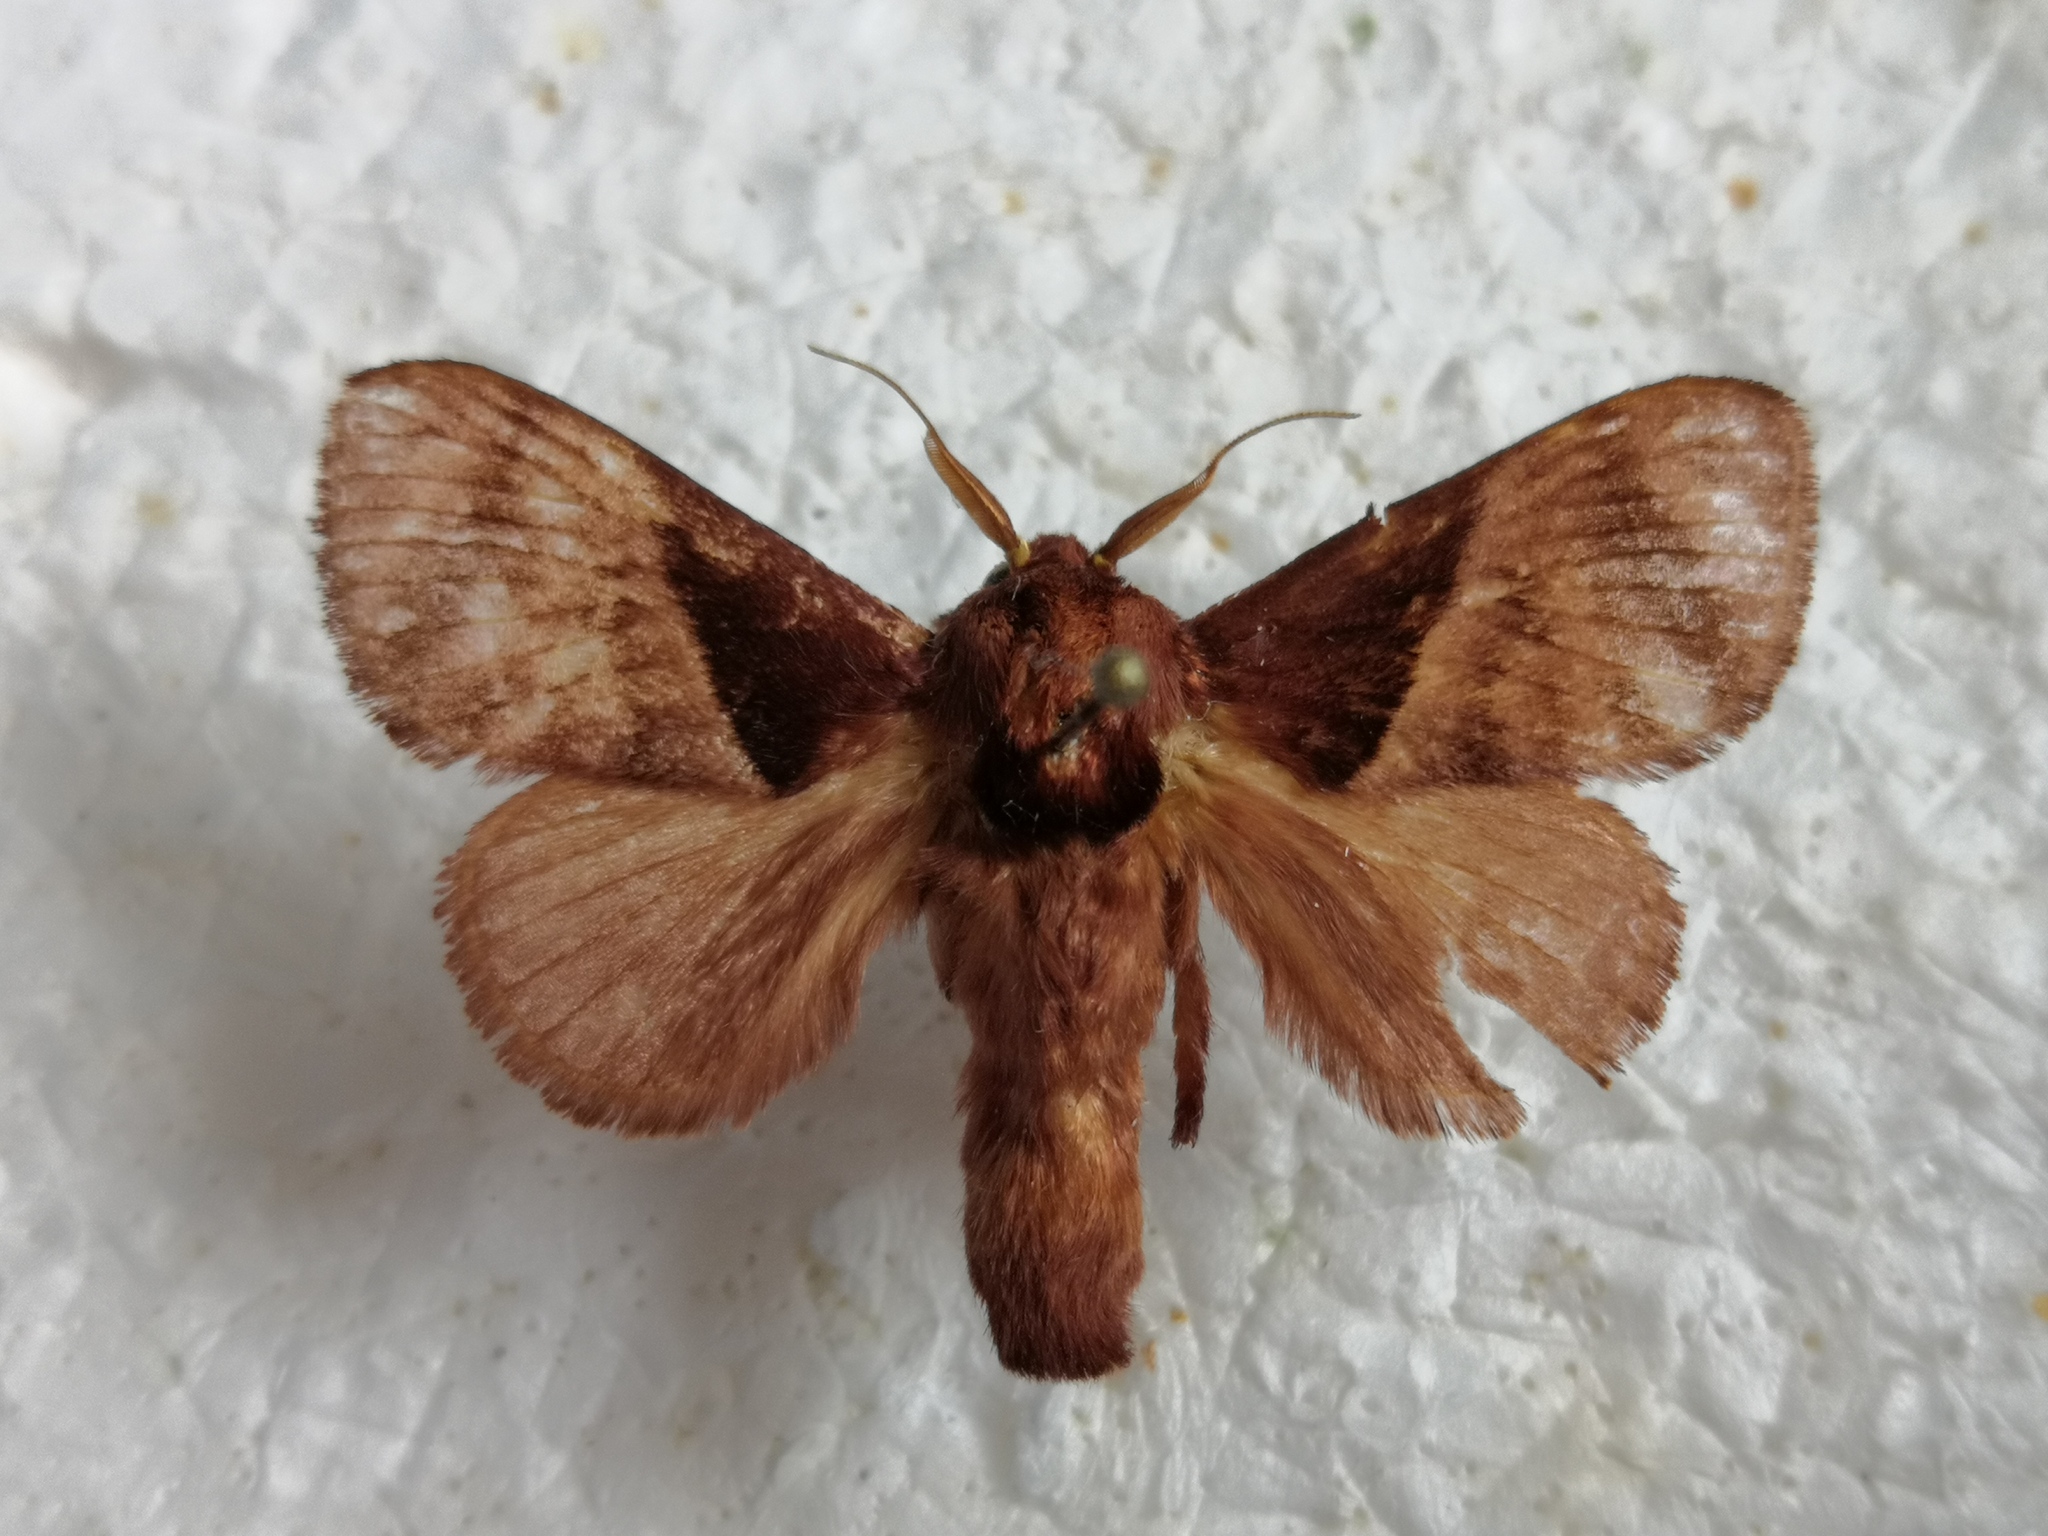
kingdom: Animalia
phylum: Arthropoda
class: Insecta
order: Lepidoptera
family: Limacodidae
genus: Birthamoides
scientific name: Birthamoides junctura
